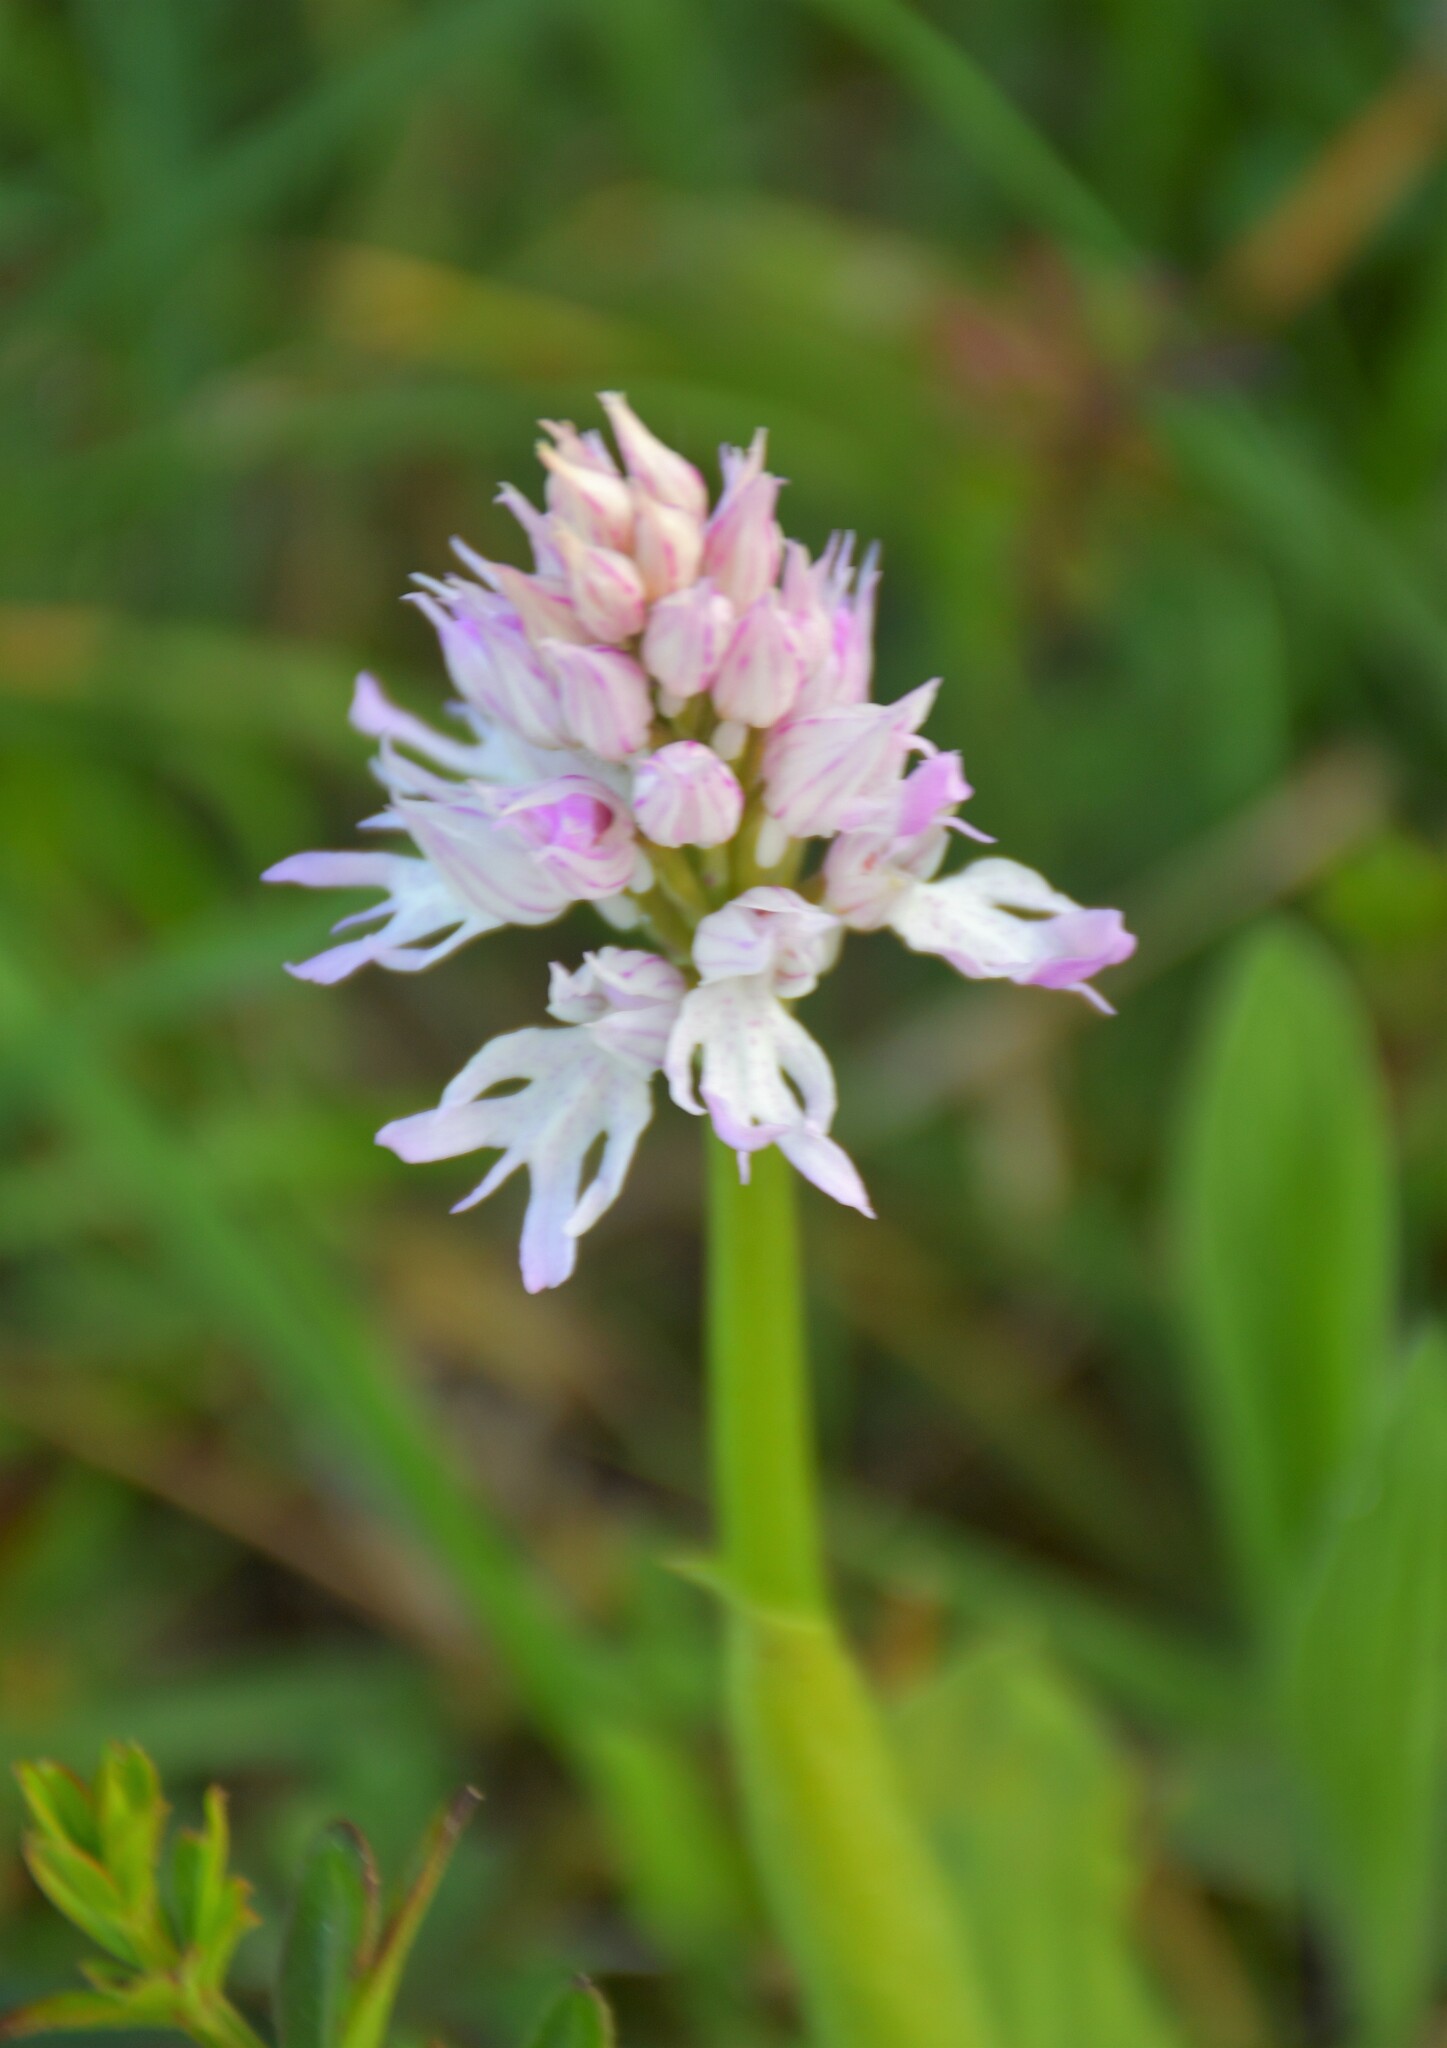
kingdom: Plantae
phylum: Tracheophyta
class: Liliopsida
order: Asparagales
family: Orchidaceae
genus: Orchis
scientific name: Orchis italica
